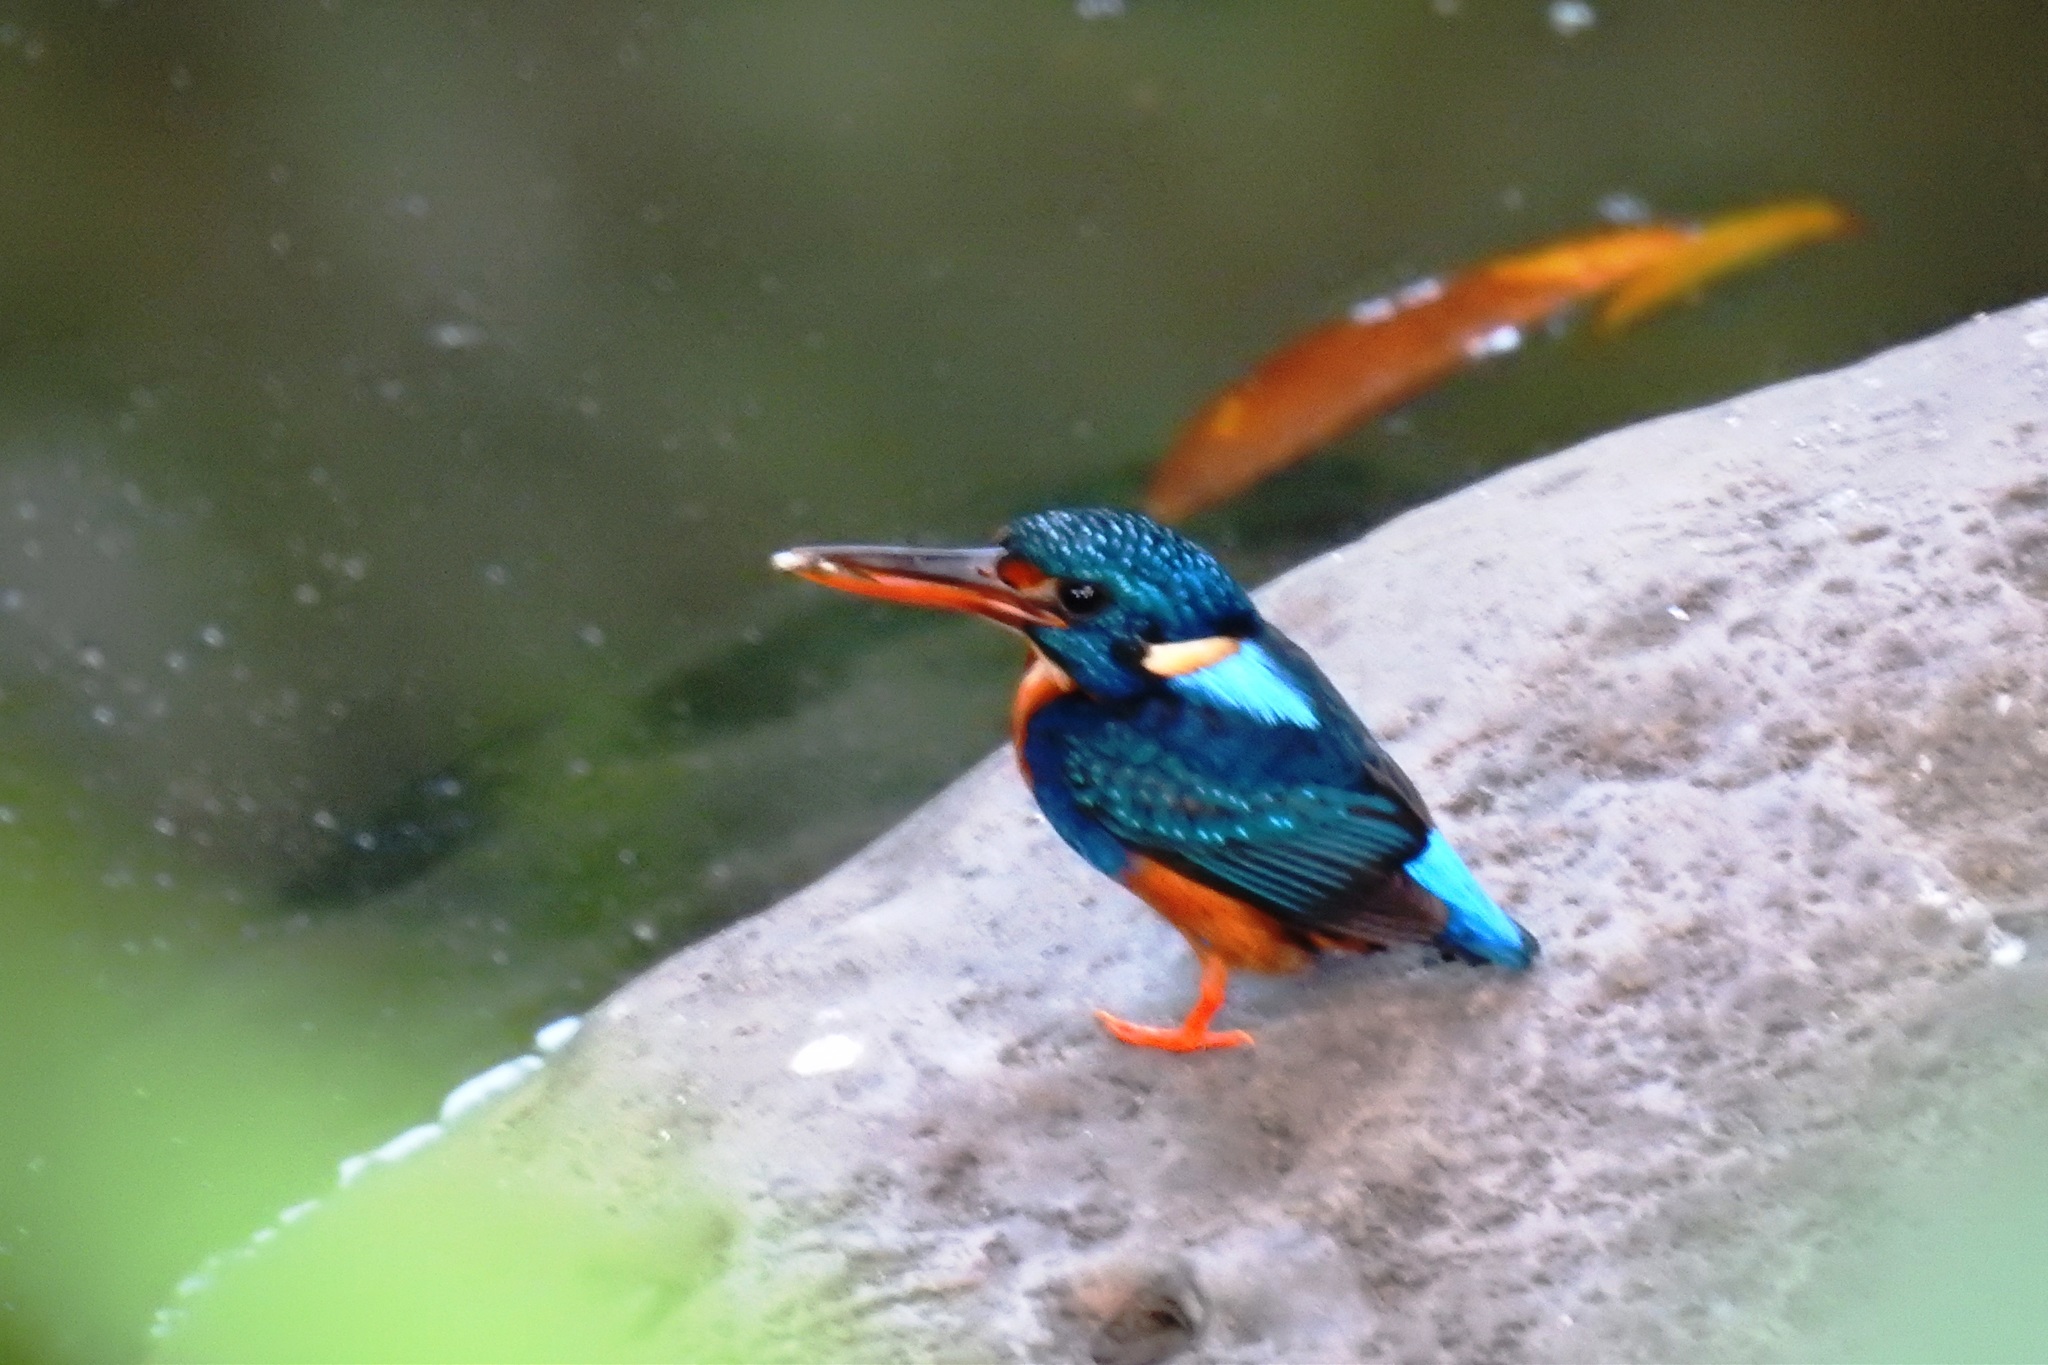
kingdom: Animalia
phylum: Chordata
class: Aves
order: Coraciiformes
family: Alcedinidae
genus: Ceyx
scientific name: Ceyx cyanopectus
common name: Indigo-banded kingfisher
